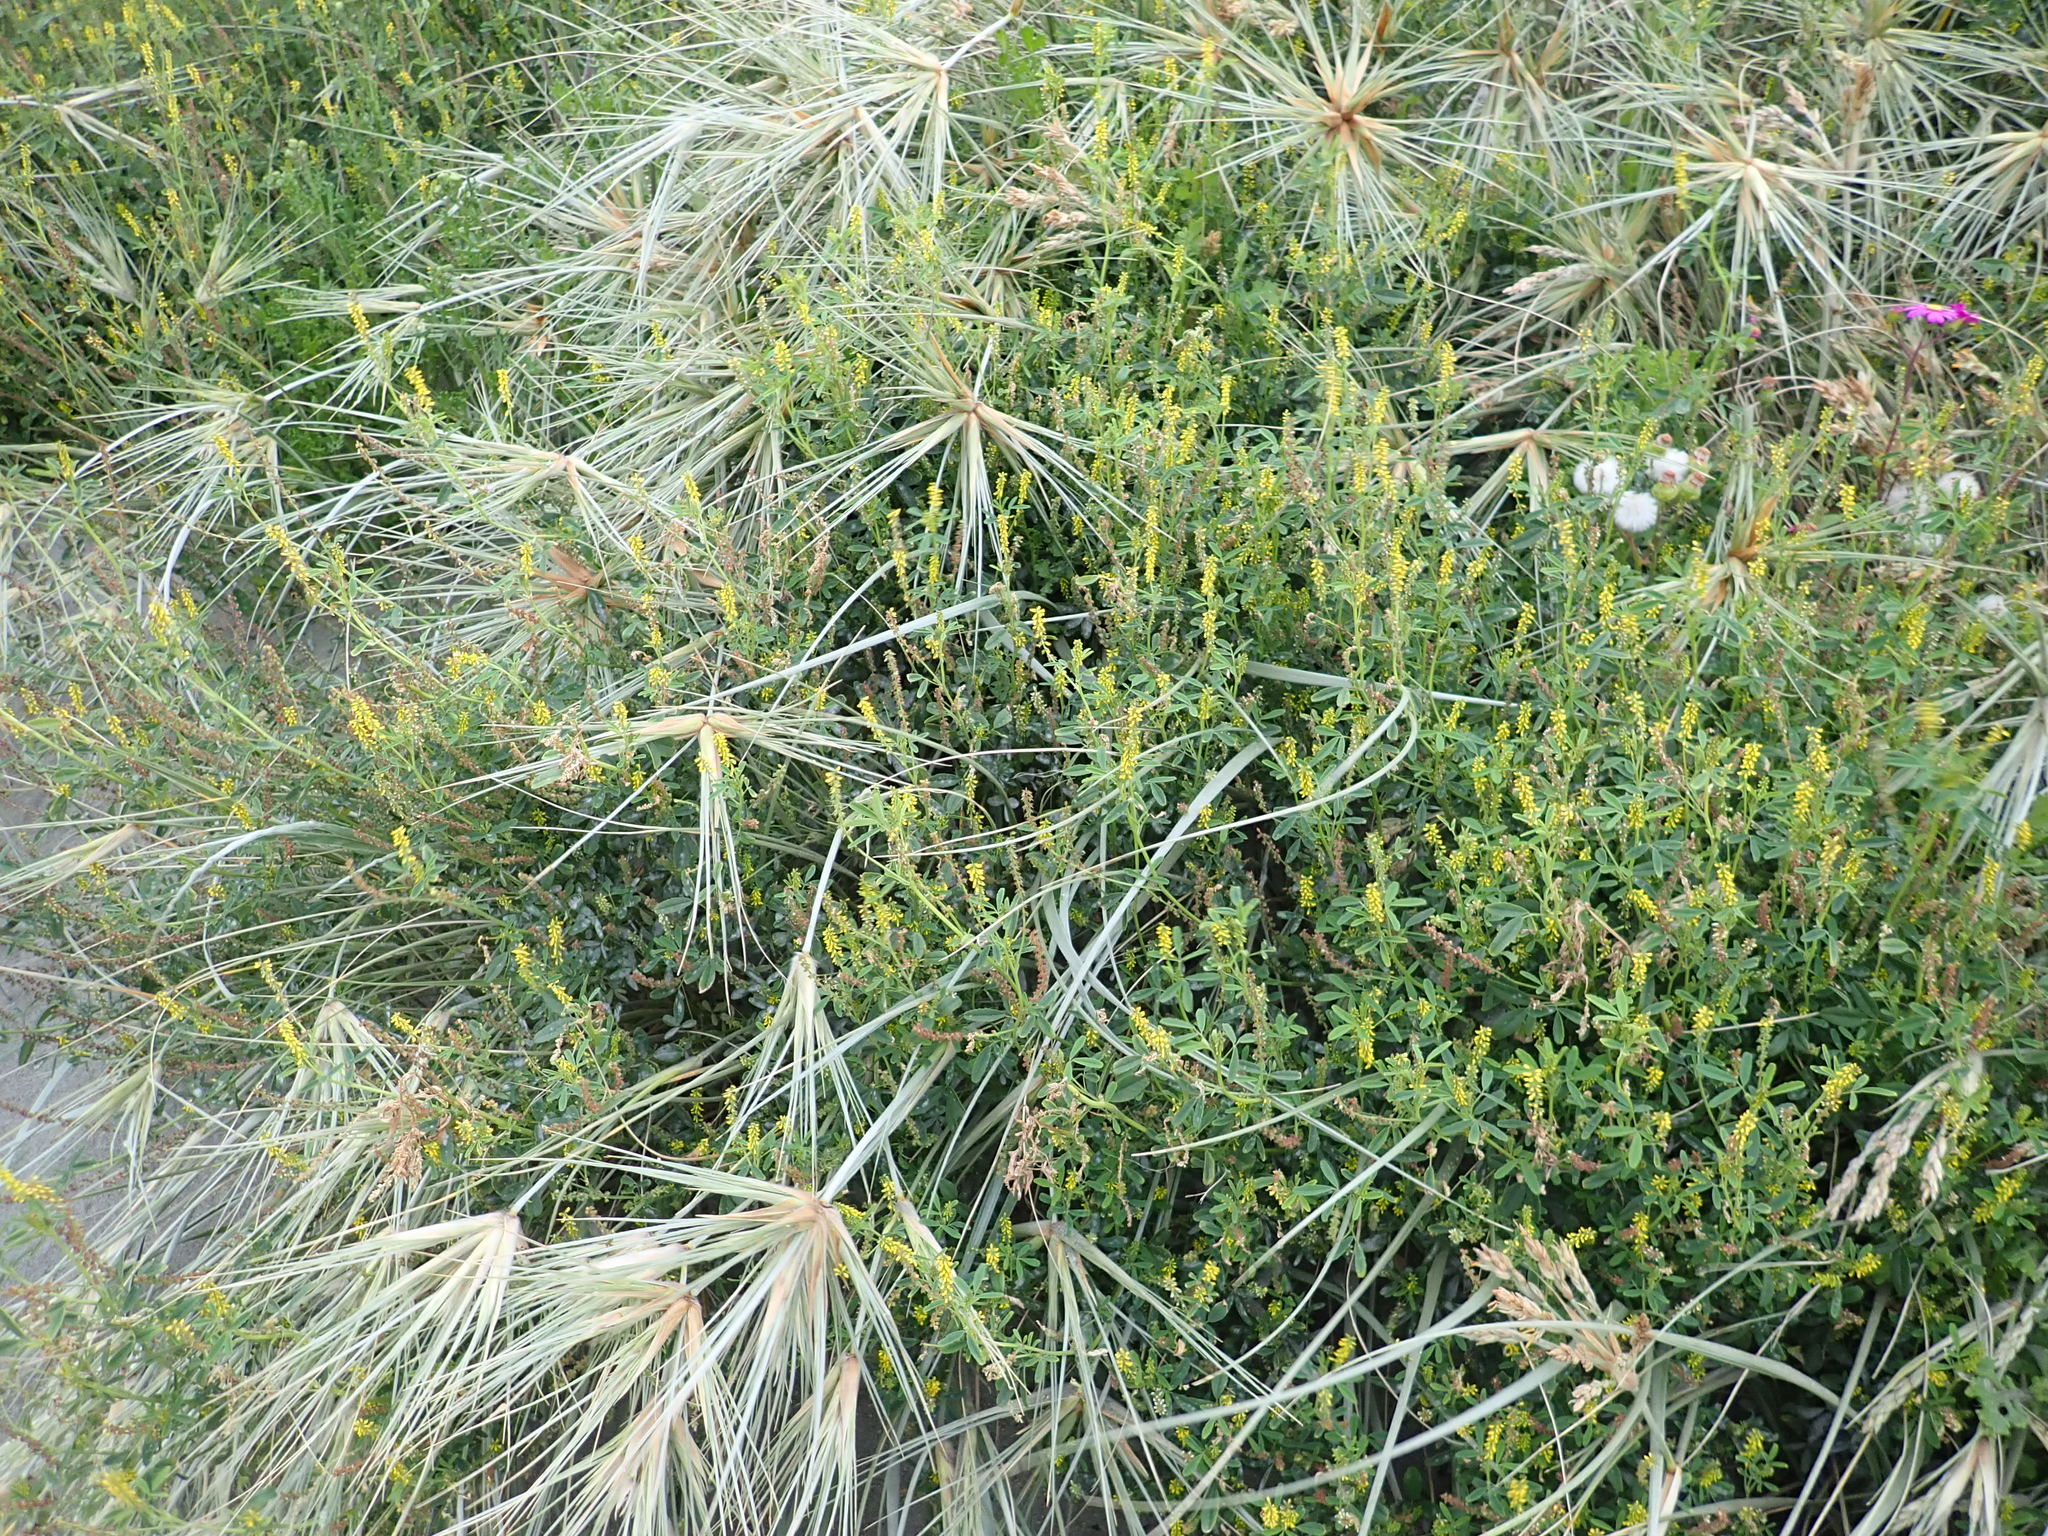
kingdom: Plantae
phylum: Tracheophyta
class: Magnoliopsida
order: Fabales
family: Fabaceae
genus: Melilotus
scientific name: Melilotus indicus
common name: Small melilot
